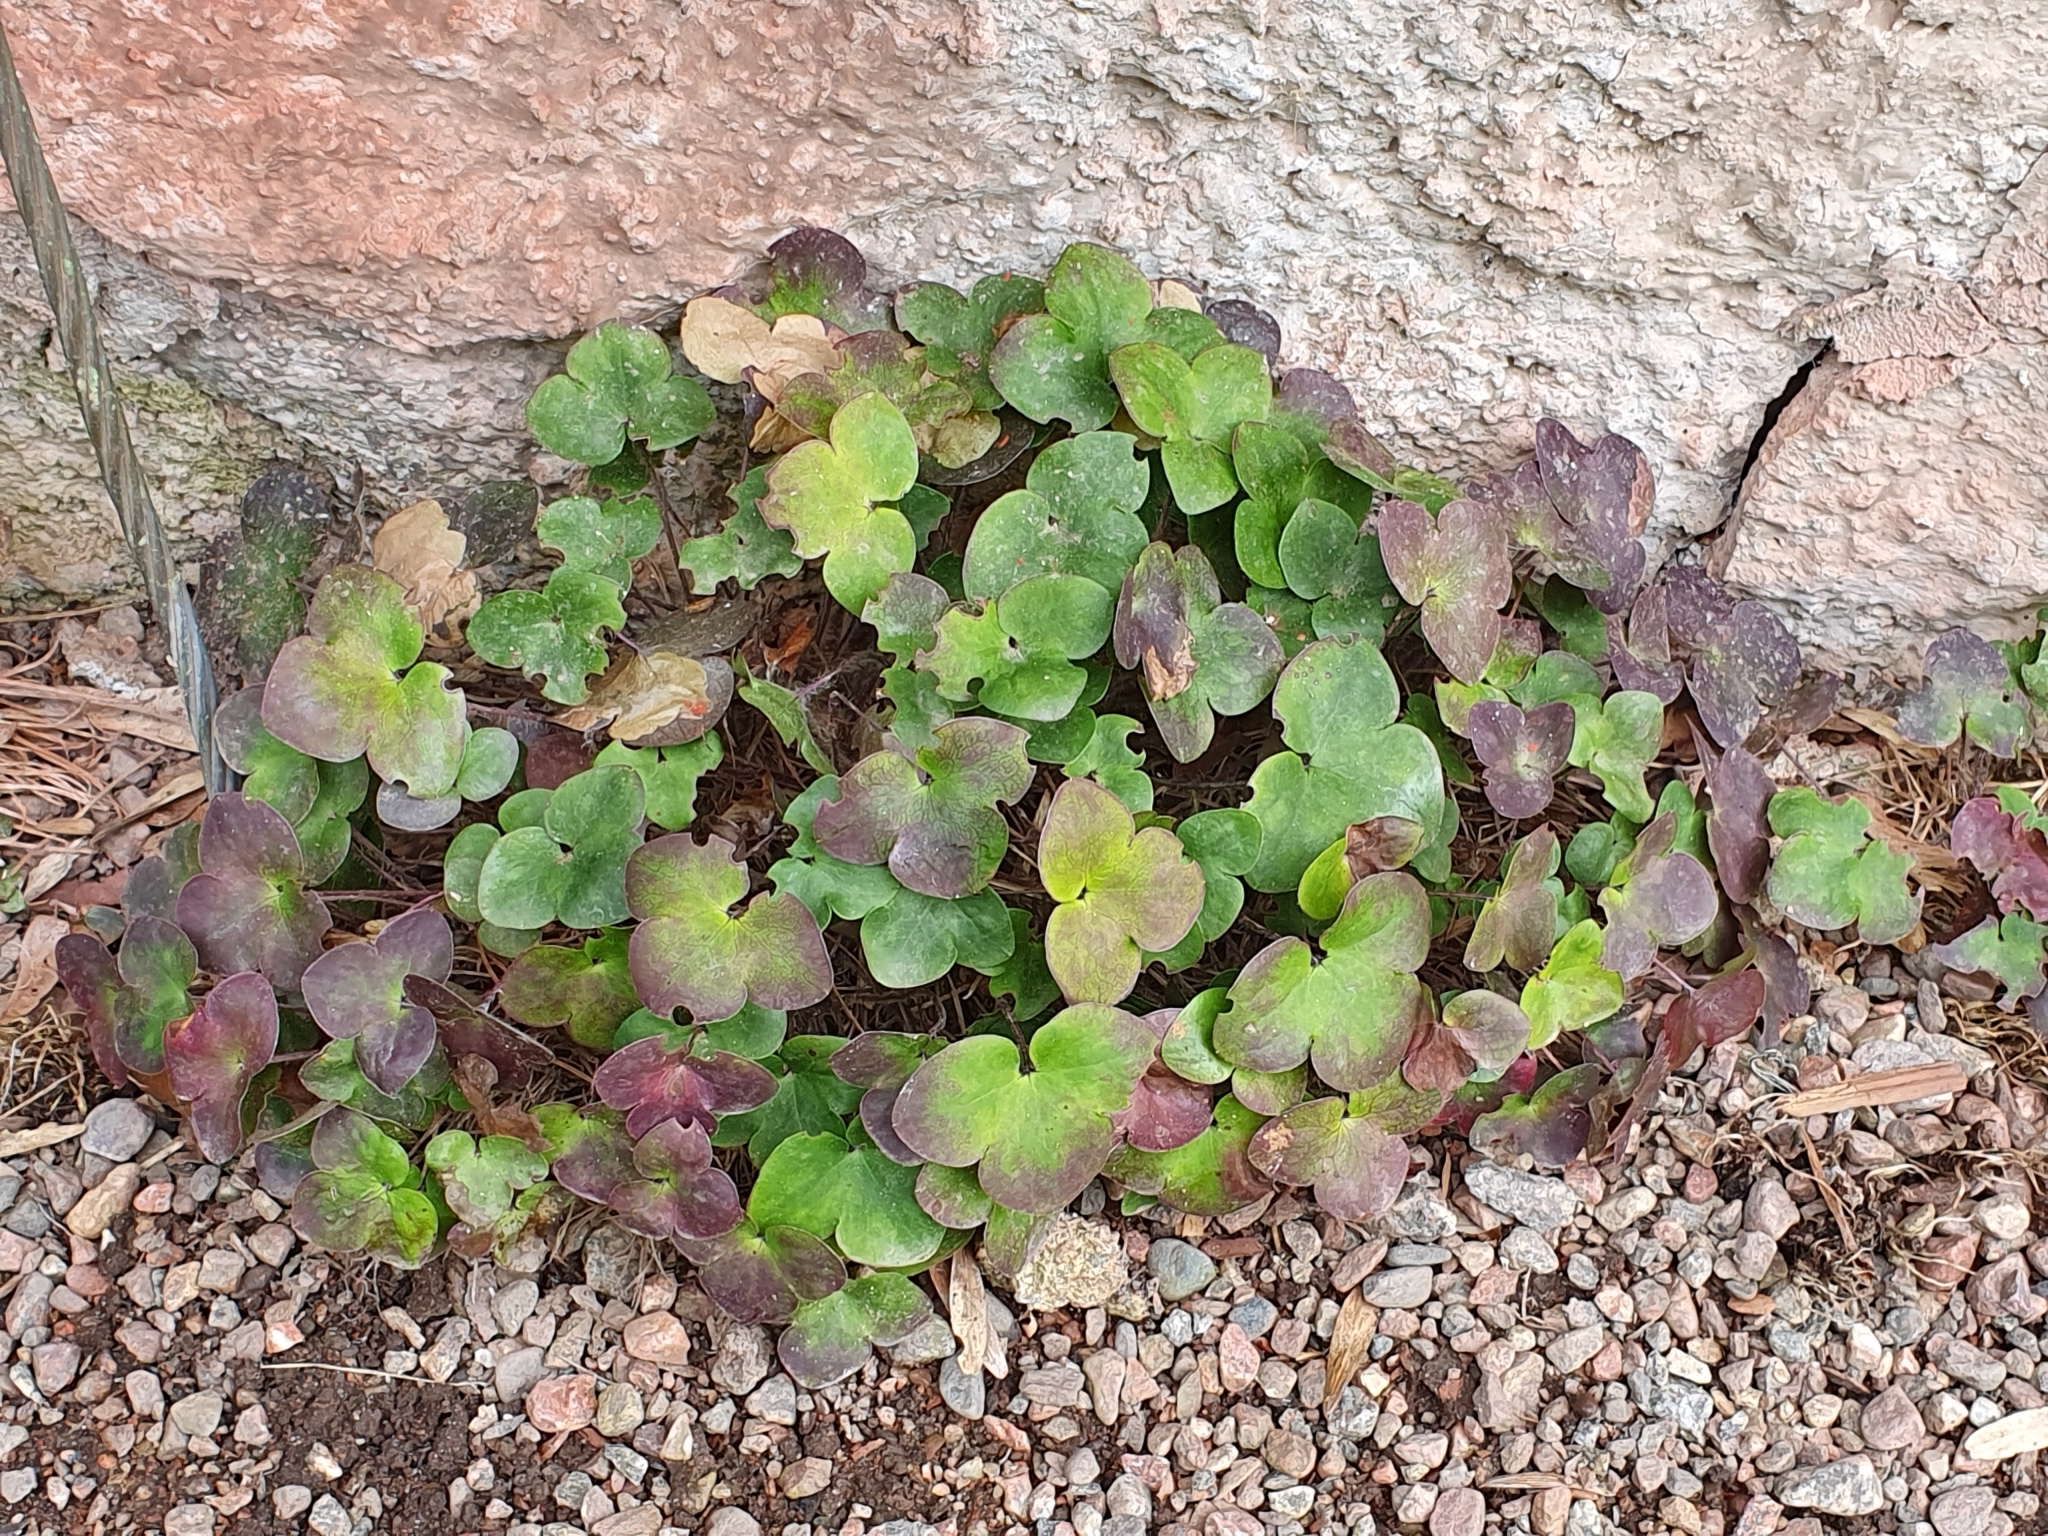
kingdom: Plantae
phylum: Tracheophyta
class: Magnoliopsida
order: Ranunculales
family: Ranunculaceae
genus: Hepatica
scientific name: Hepatica nobilis
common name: Liverleaf
